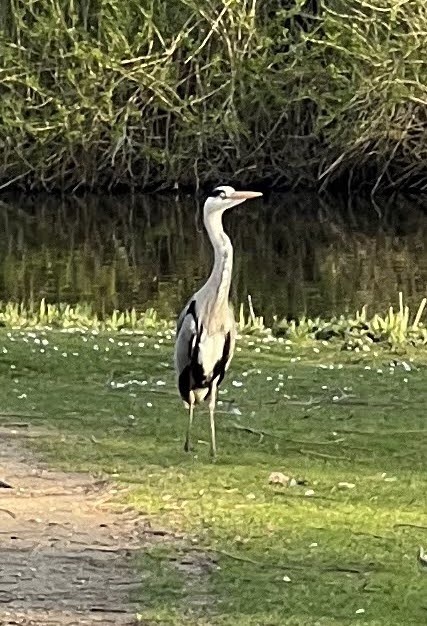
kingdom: Animalia
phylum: Chordata
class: Aves
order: Pelecaniformes
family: Ardeidae
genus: Ardea
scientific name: Ardea cinerea
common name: Grey heron
